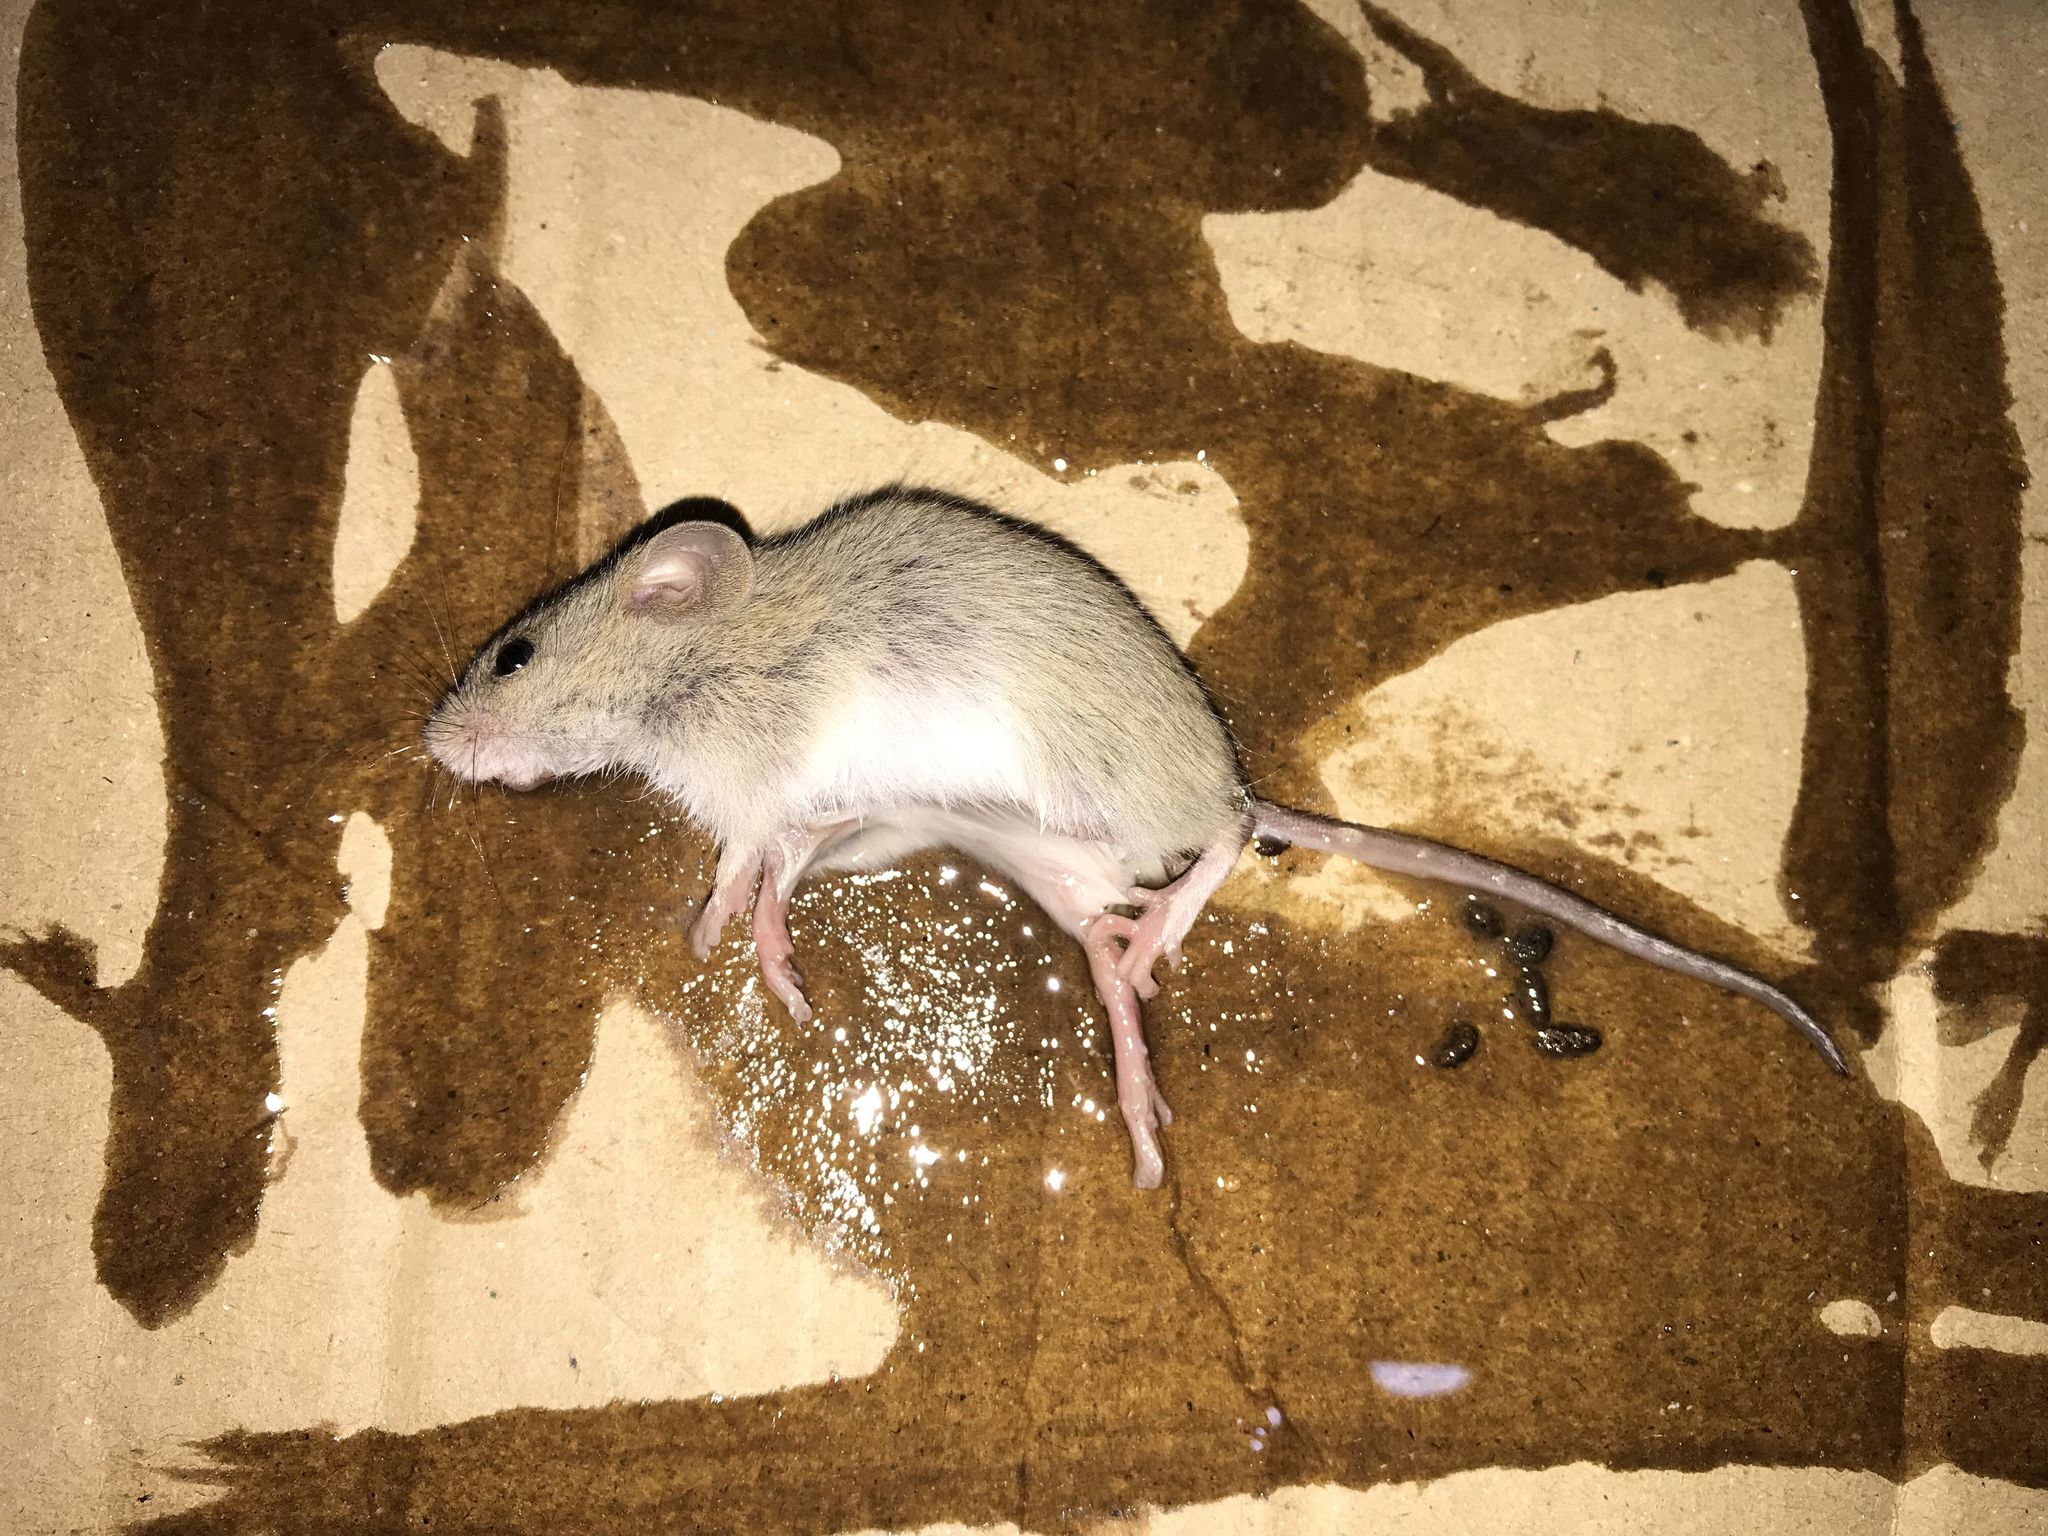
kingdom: Animalia
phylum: Chordata
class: Mammalia
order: Rodentia
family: Muridae
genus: Apodemus
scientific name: Apodemus pallipes
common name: Himalayan field mouse
